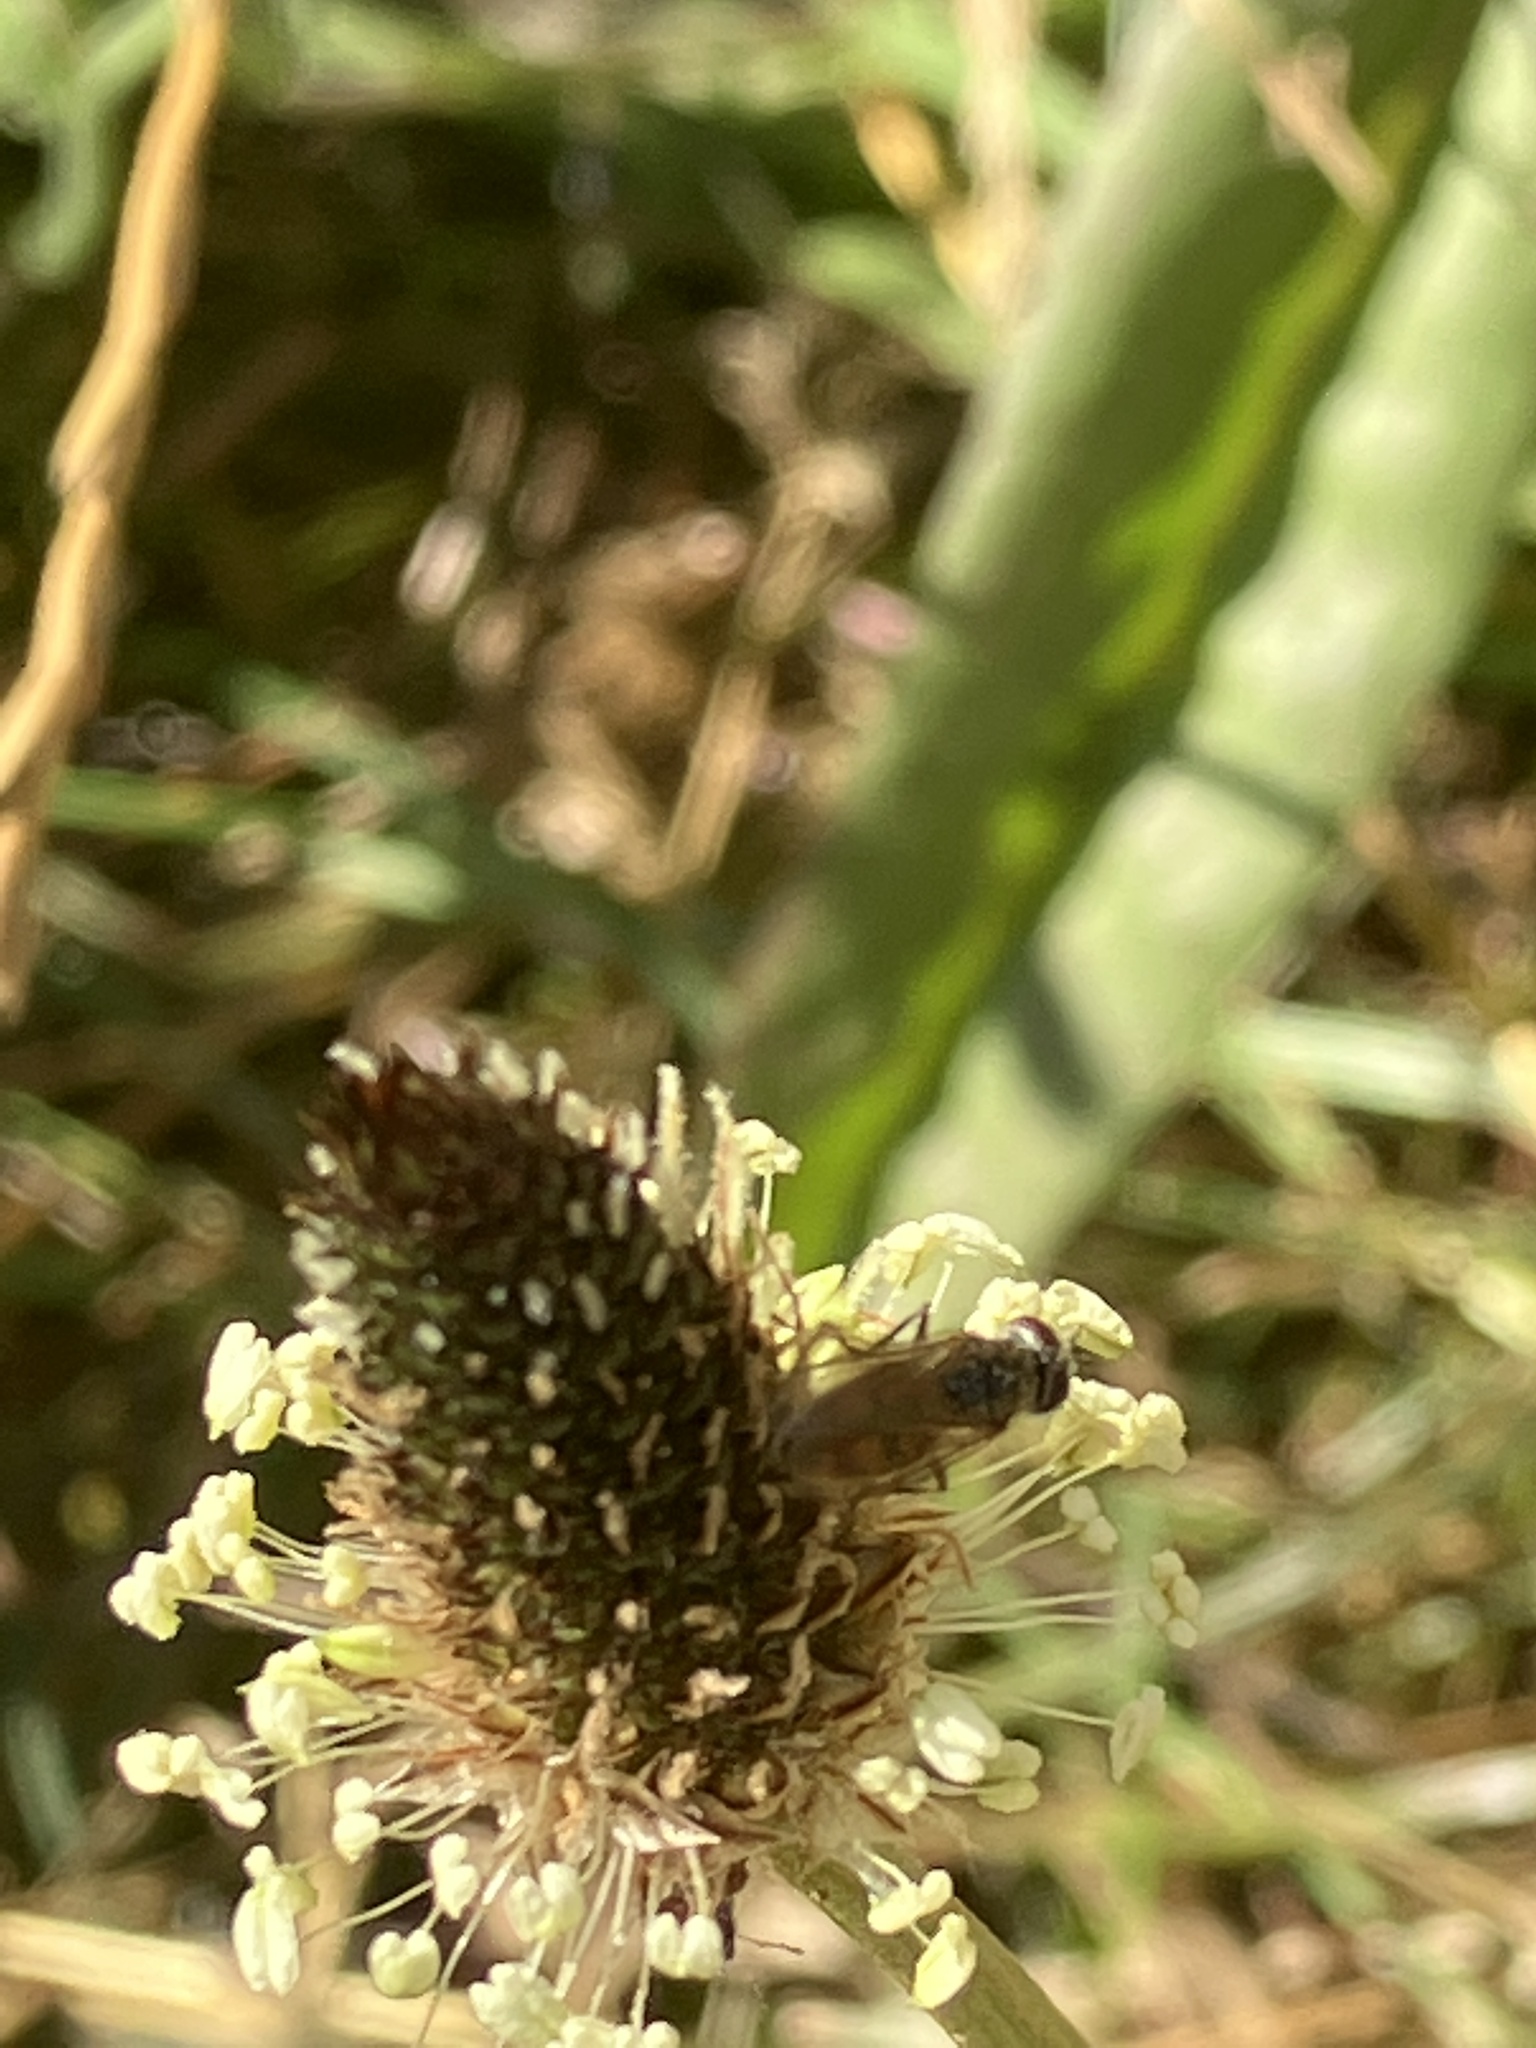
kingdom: Animalia
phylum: Arthropoda
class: Insecta
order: Diptera
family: Syrphidae
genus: Melanostoma
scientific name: Melanostoma
